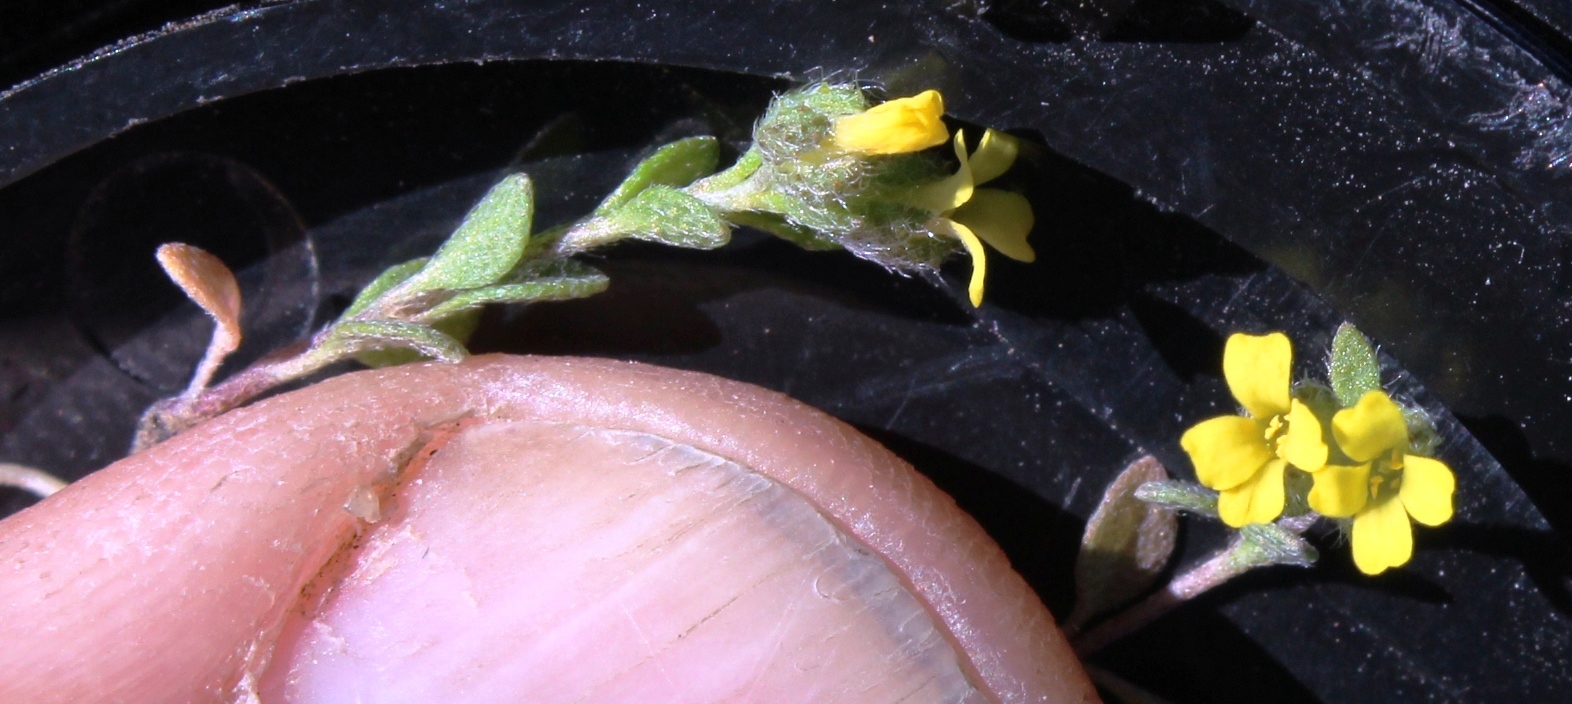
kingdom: Plantae
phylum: Tracheophyta
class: Magnoliopsida
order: Brassicales
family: Brassicaceae
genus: Alyssum
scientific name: Alyssum minutum
